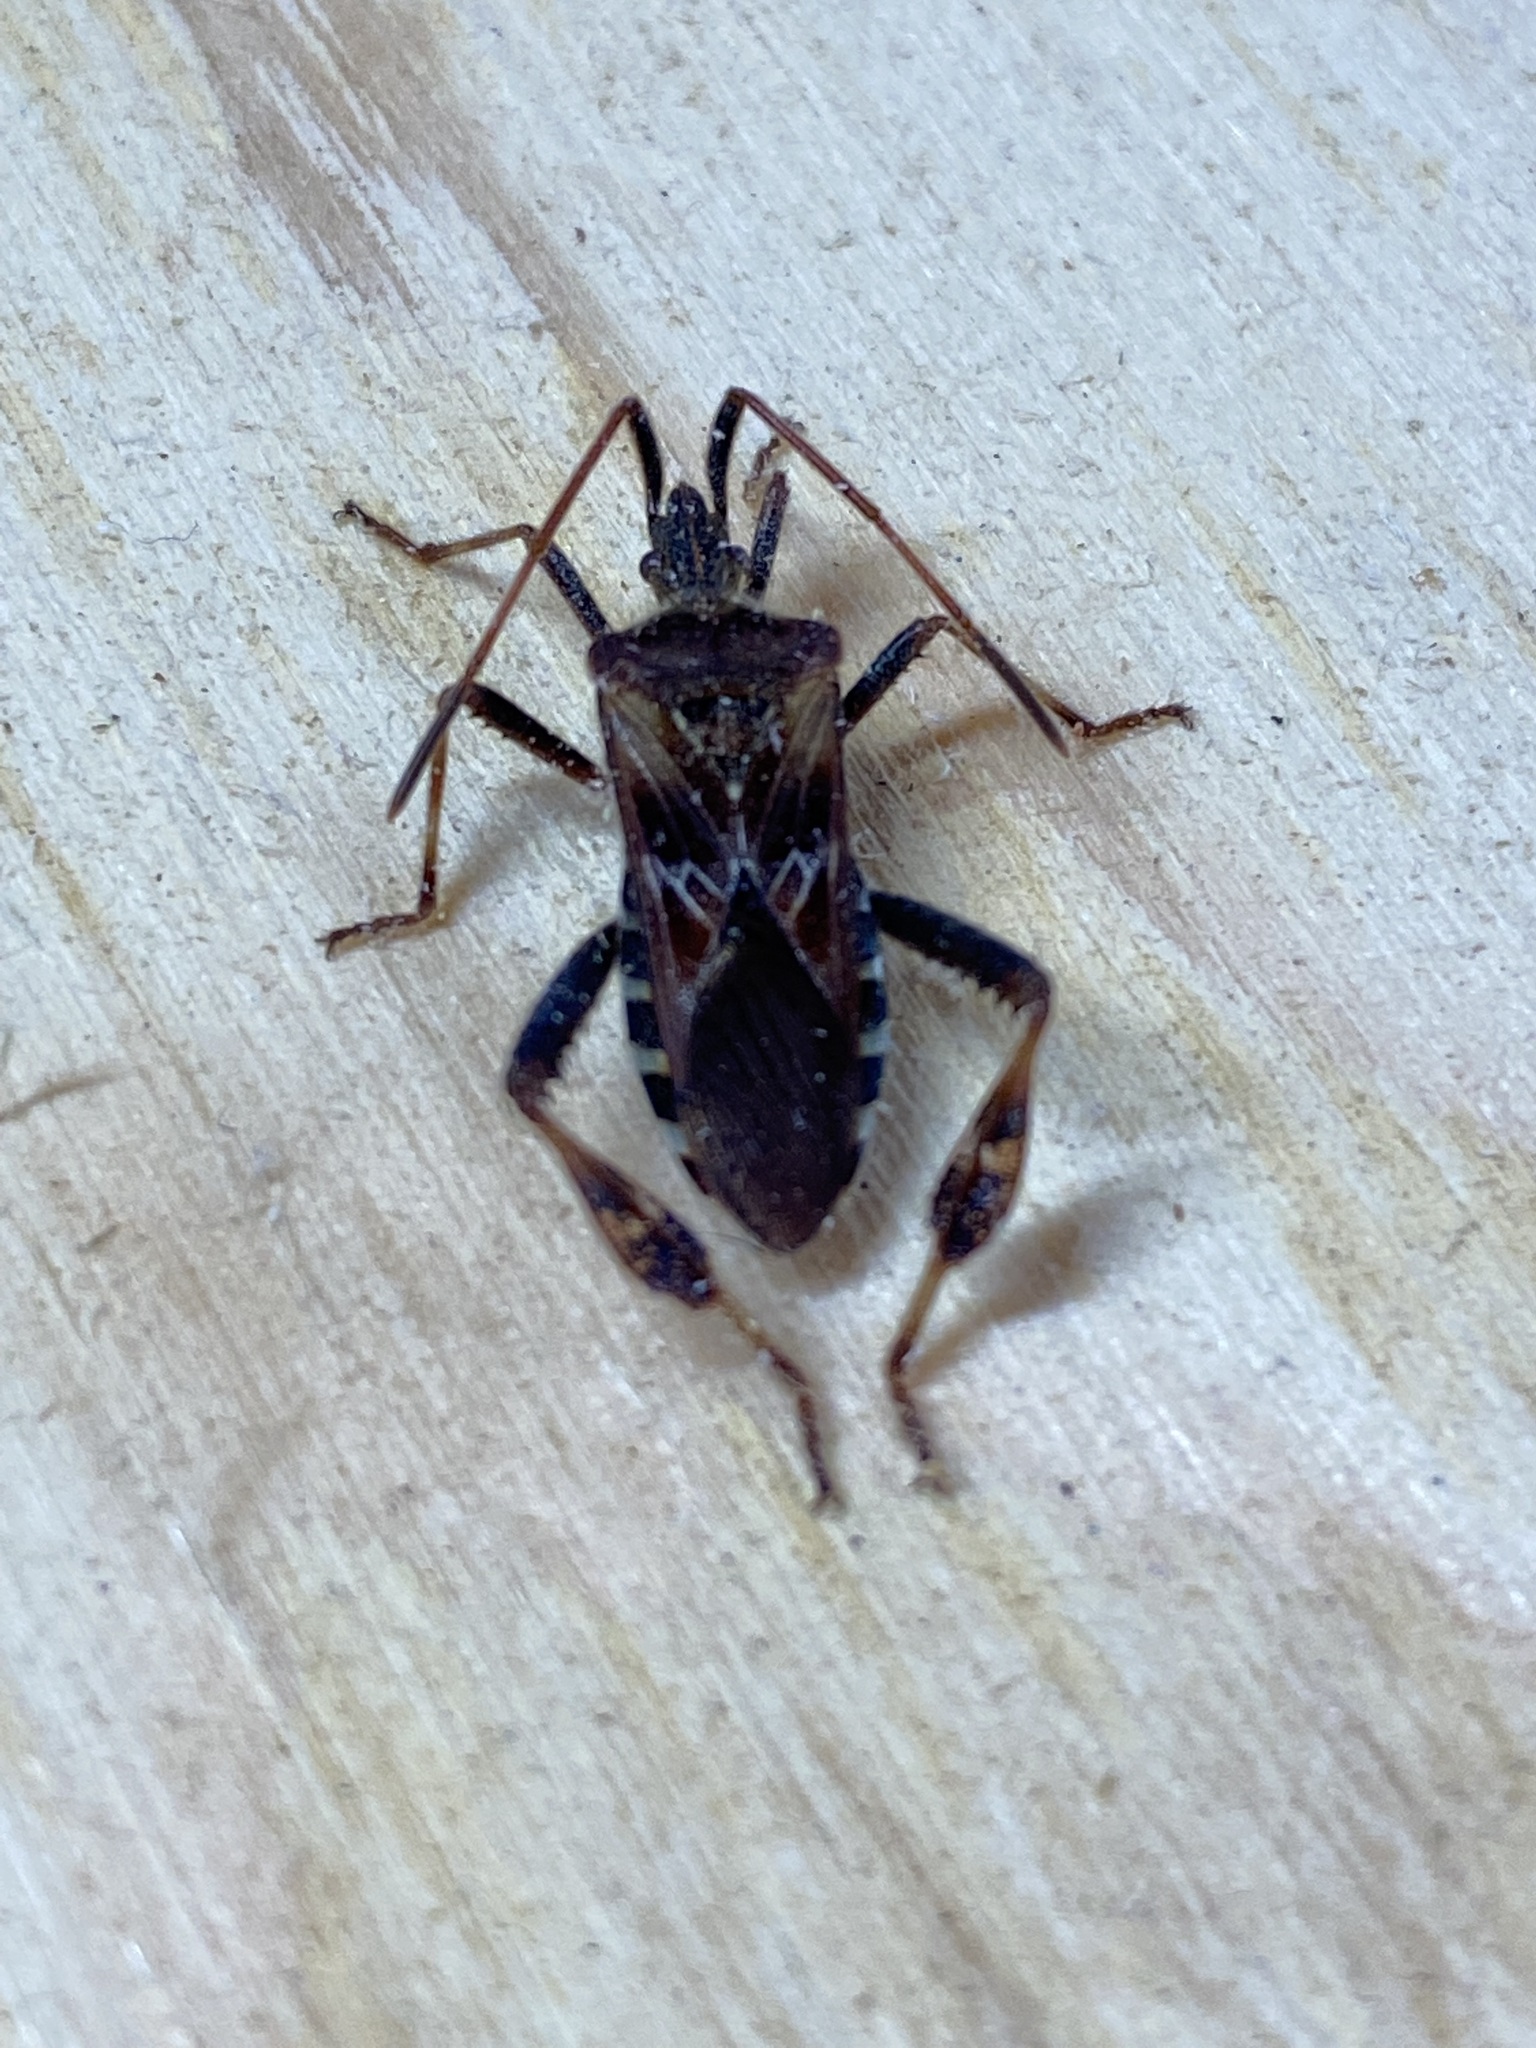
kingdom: Animalia
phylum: Arthropoda
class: Insecta
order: Hemiptera
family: Coreidae
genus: Leptoglossus
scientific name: Leptoglossus occidentalis
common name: Western conifer-seed bug
